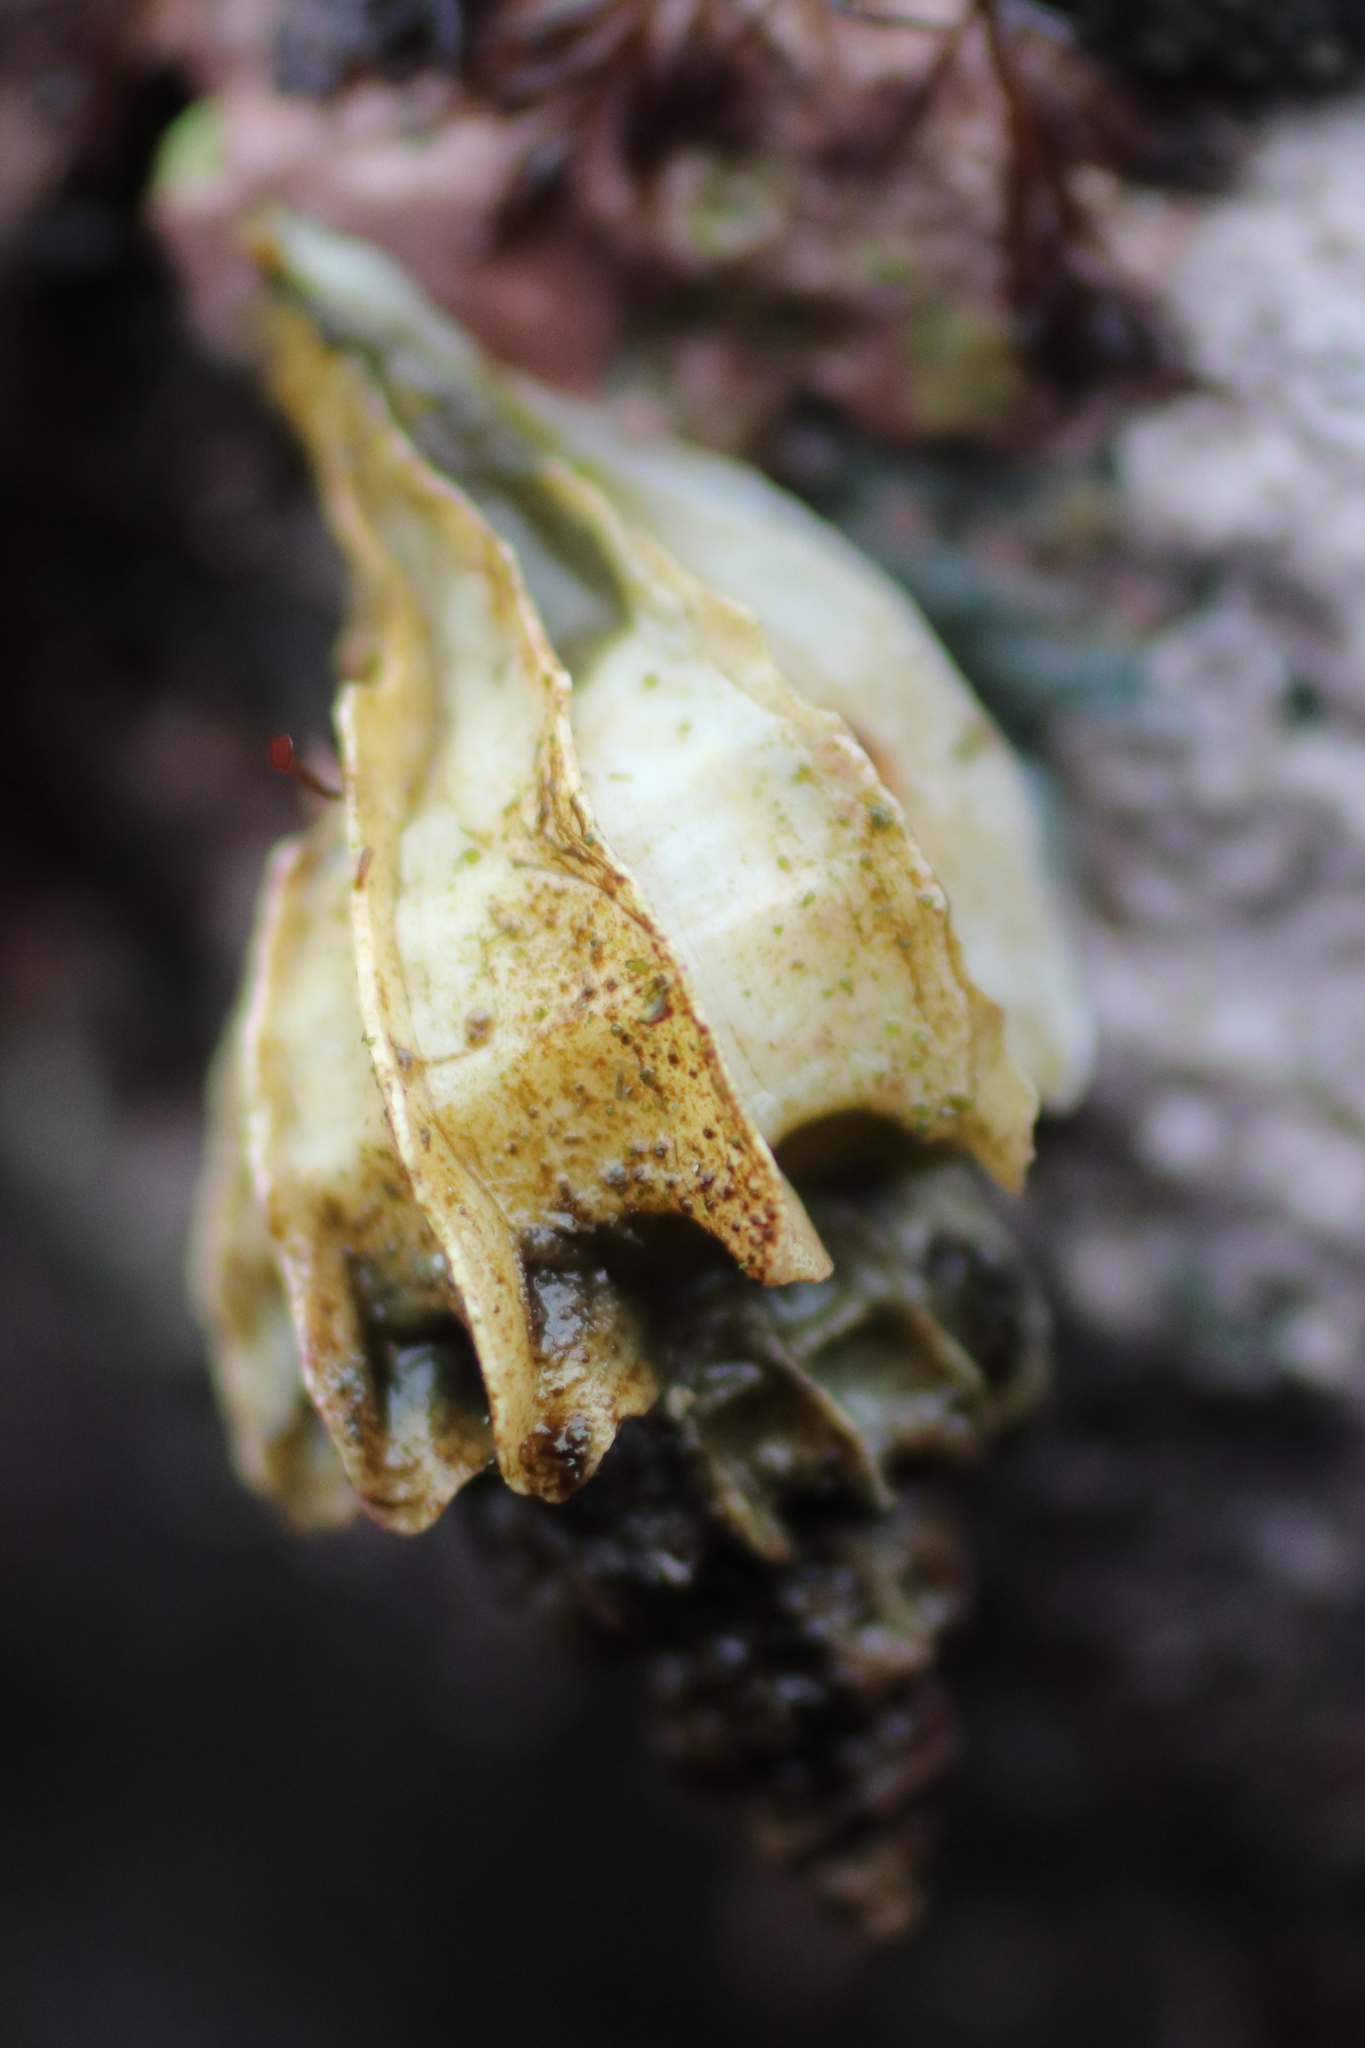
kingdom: Animalia
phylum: Mollusca
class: Gastropoda
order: Neogastropoda
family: Muricidae
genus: Scabrotrophon
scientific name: Scabrotrophon stuarti
